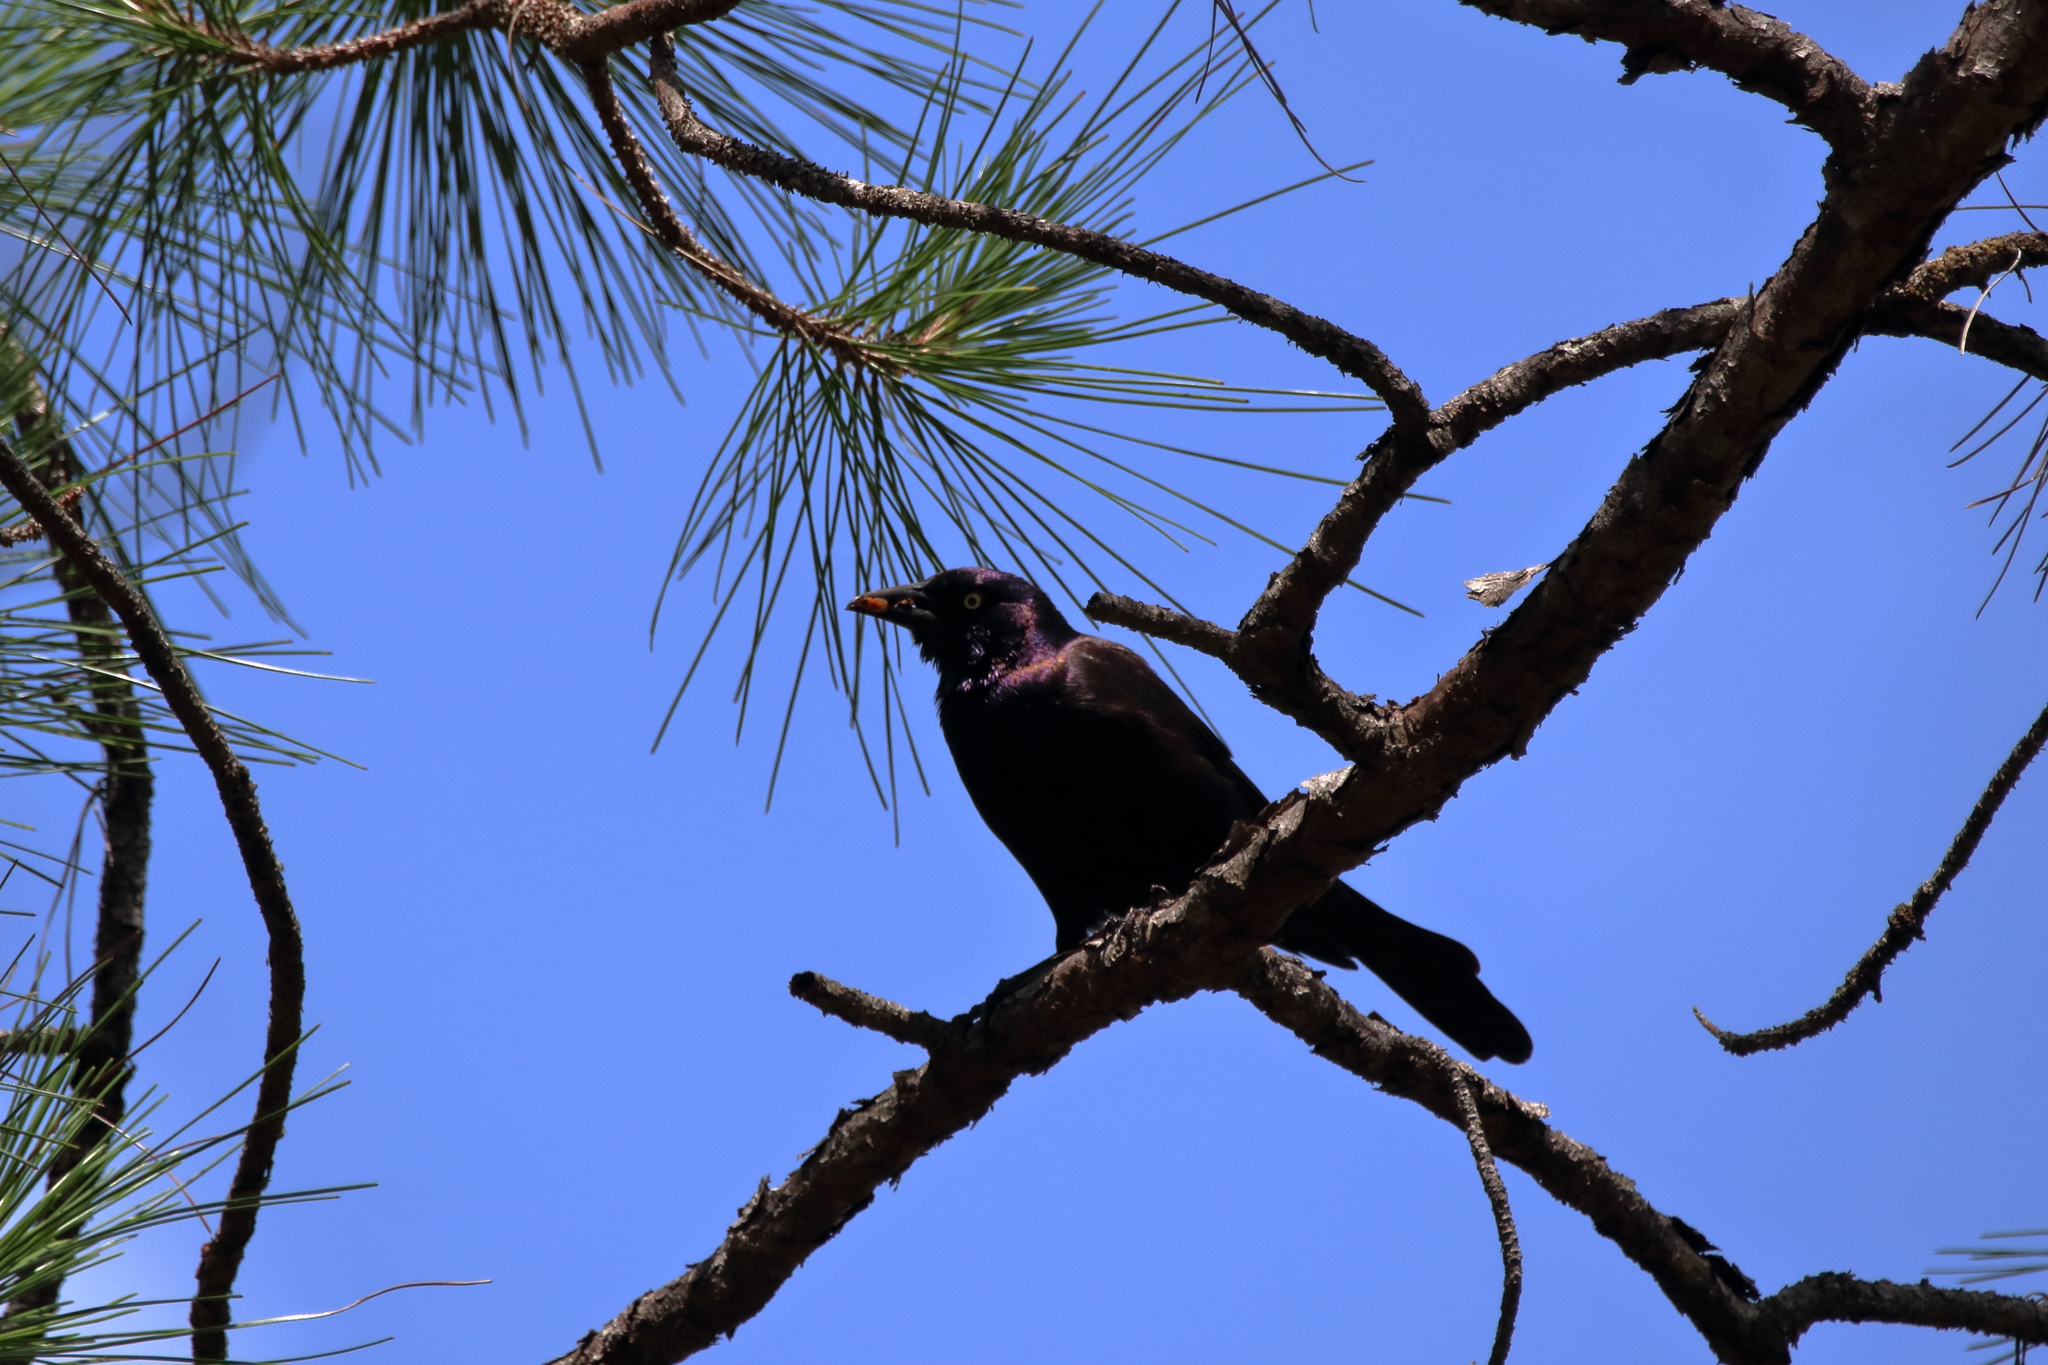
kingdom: Animalia
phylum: Chordata
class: Aves
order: Passeriformes
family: Icteridae
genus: Quiscalus
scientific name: Quiscalus quiscula
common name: Common grackle
